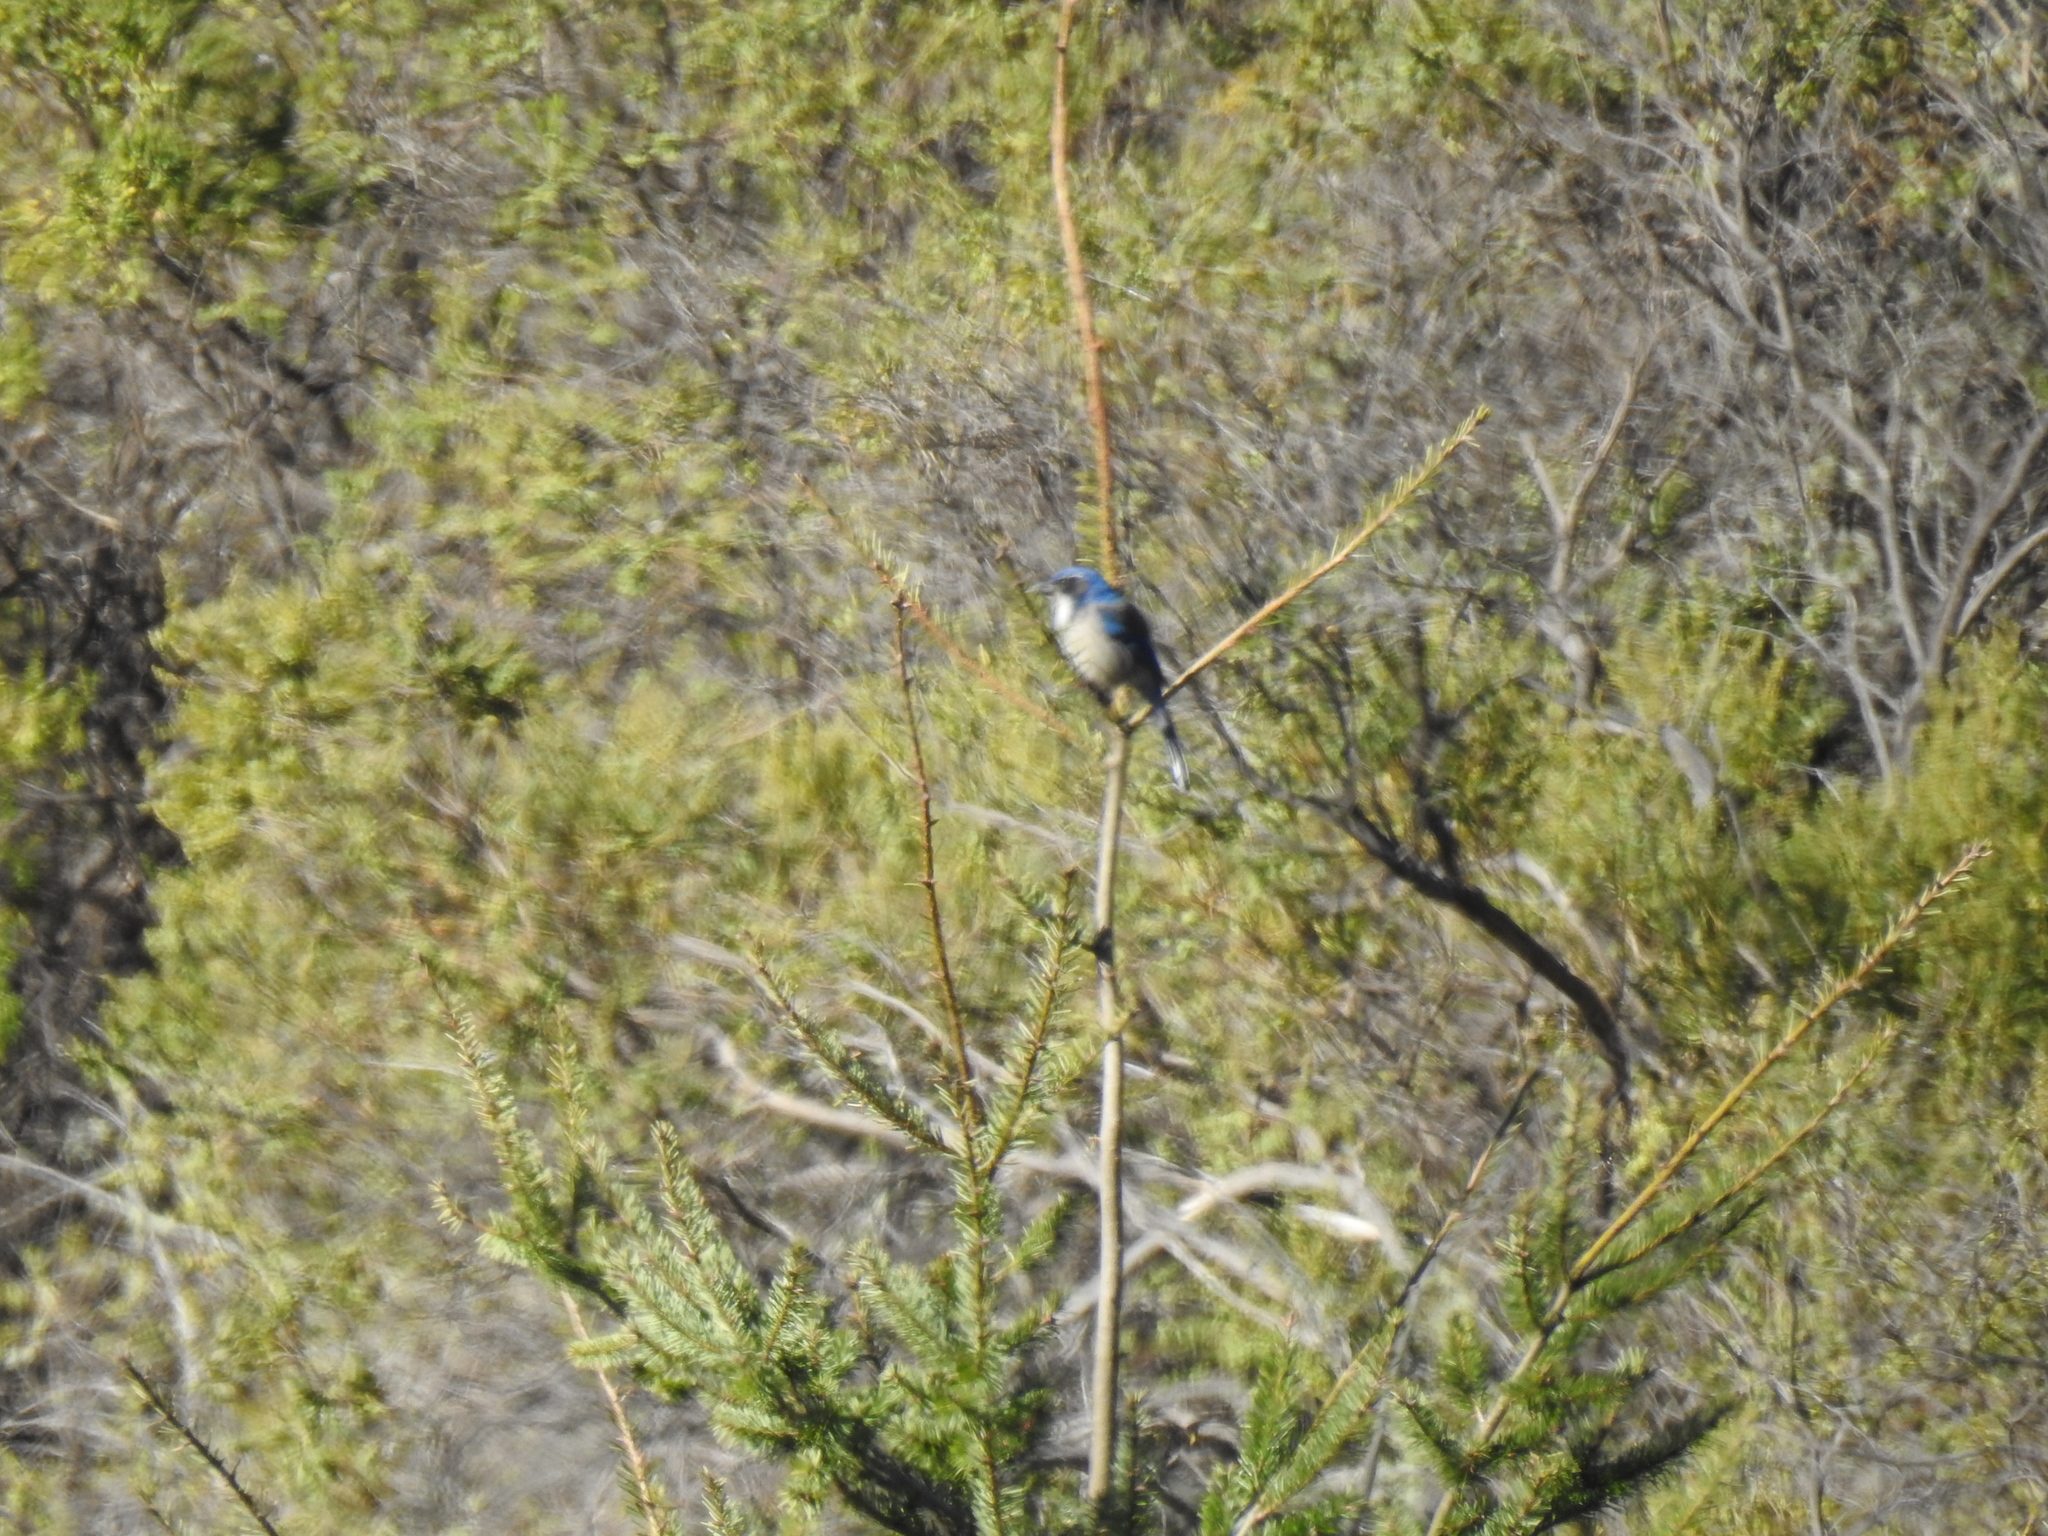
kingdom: Animalia
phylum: Chordata
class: Aves
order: Passeriformes
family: Corvidae
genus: Aphelocoma
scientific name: Aphelocoma californica
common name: California scrub-jay
